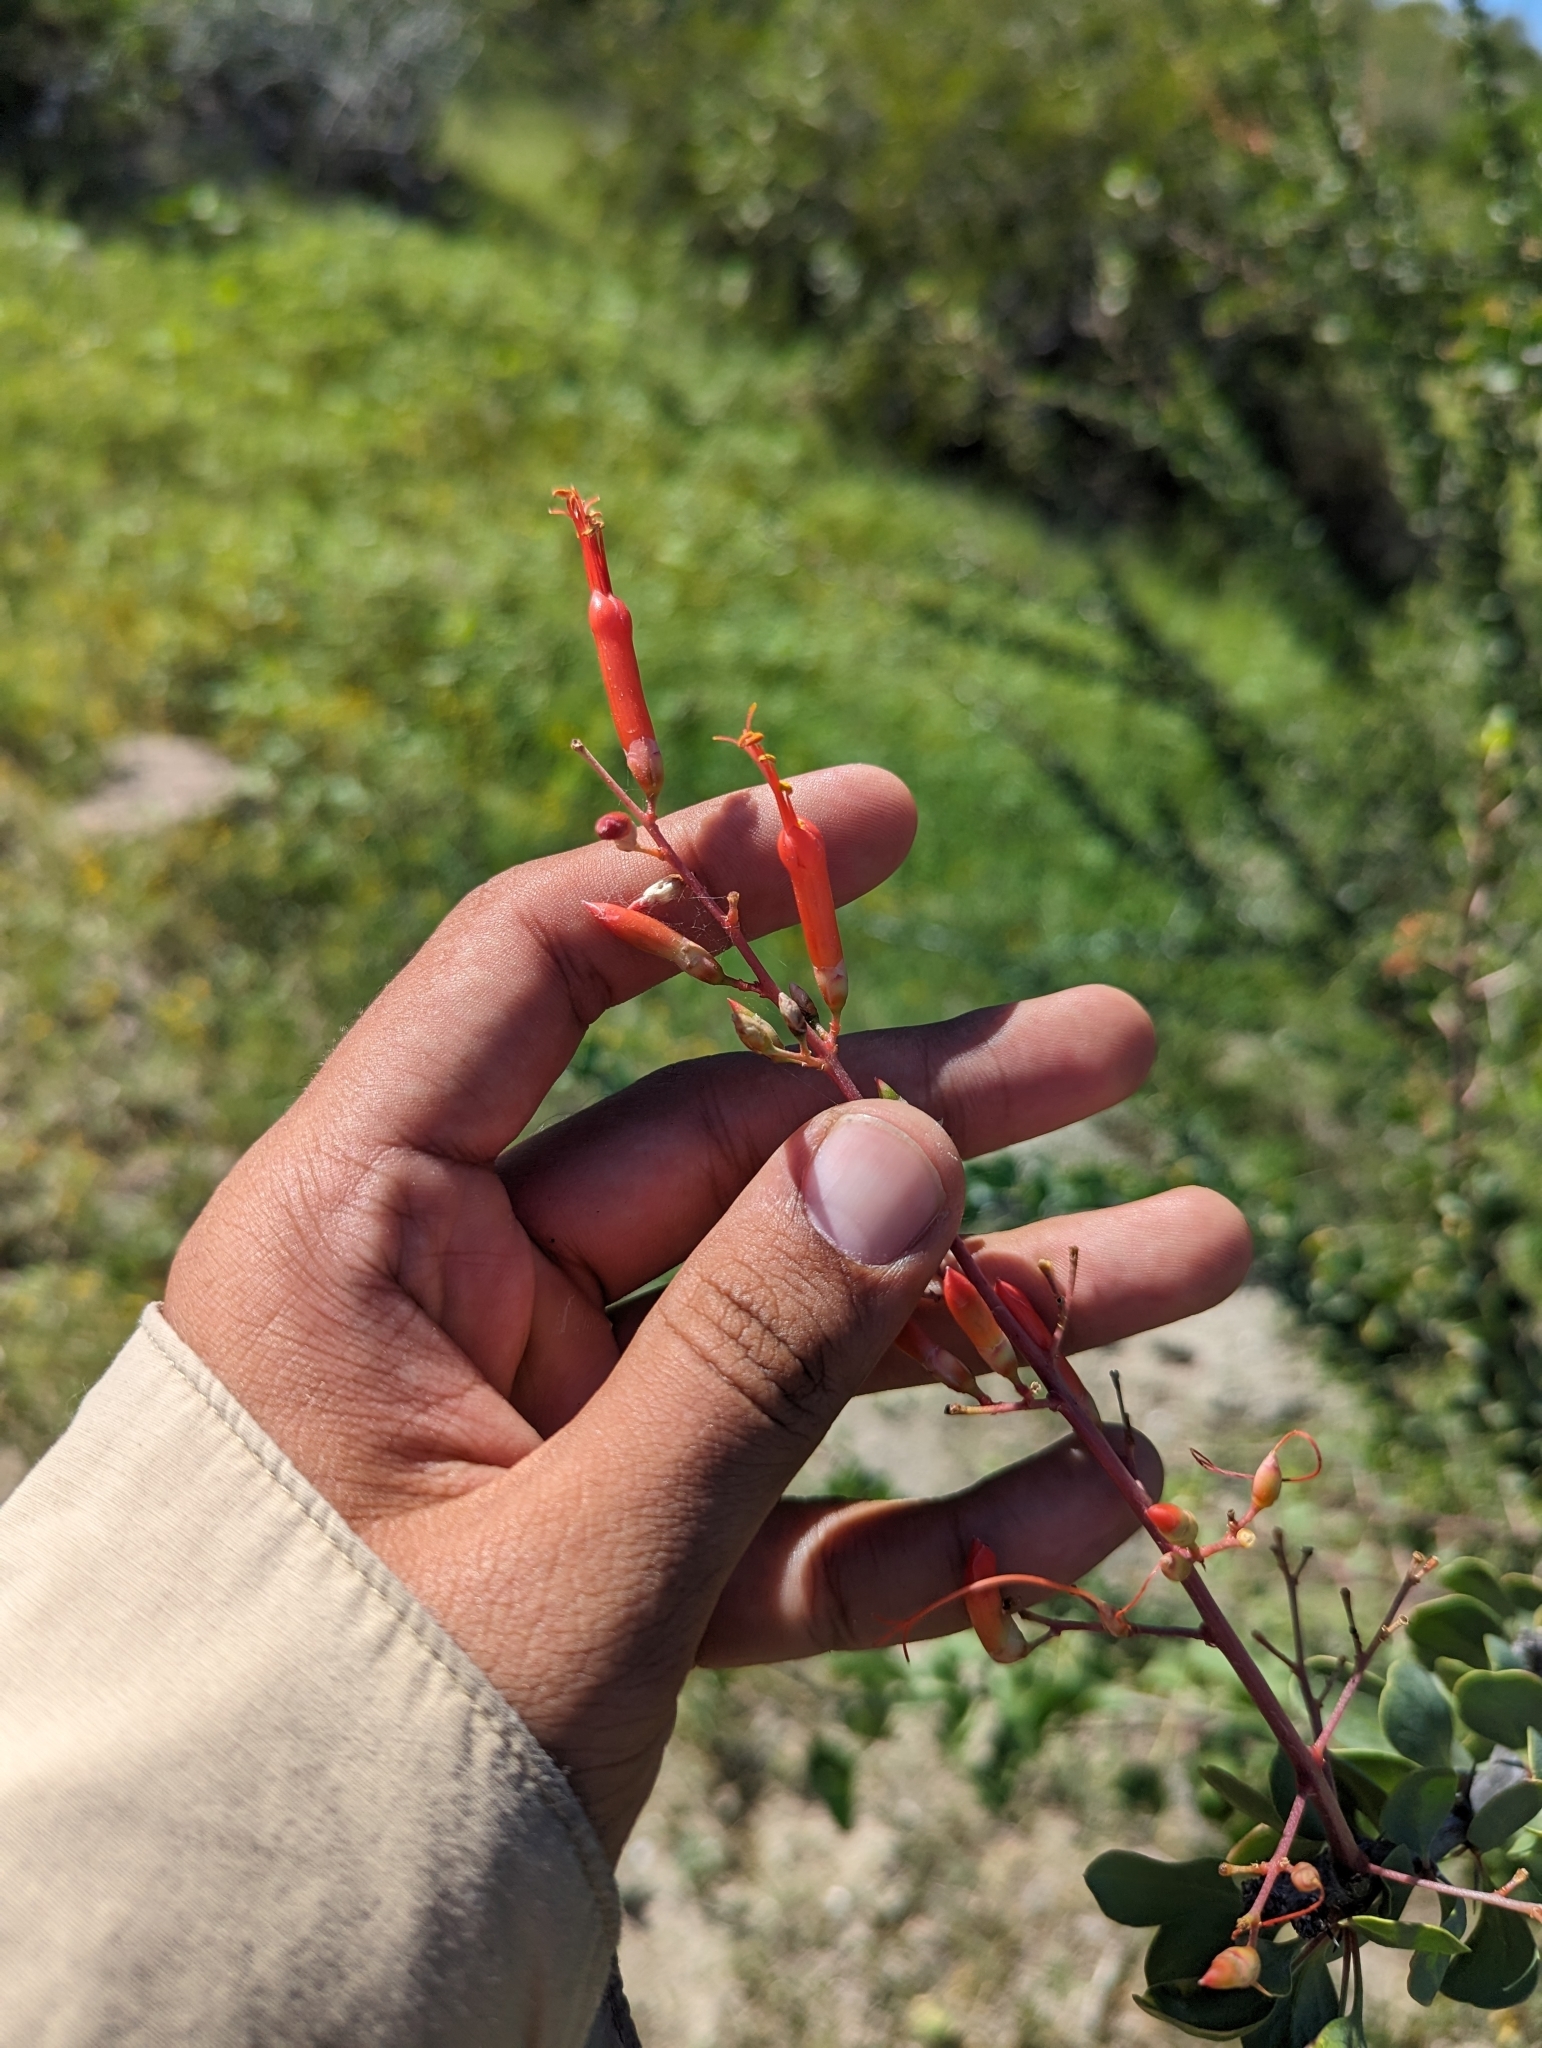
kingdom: Plantae
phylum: Tracheophyta
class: Magnoliopsida
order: Ericales
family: Fouquieriaceae
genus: Fouquieria
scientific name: Fouquieria diguetii
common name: Adam's tree
